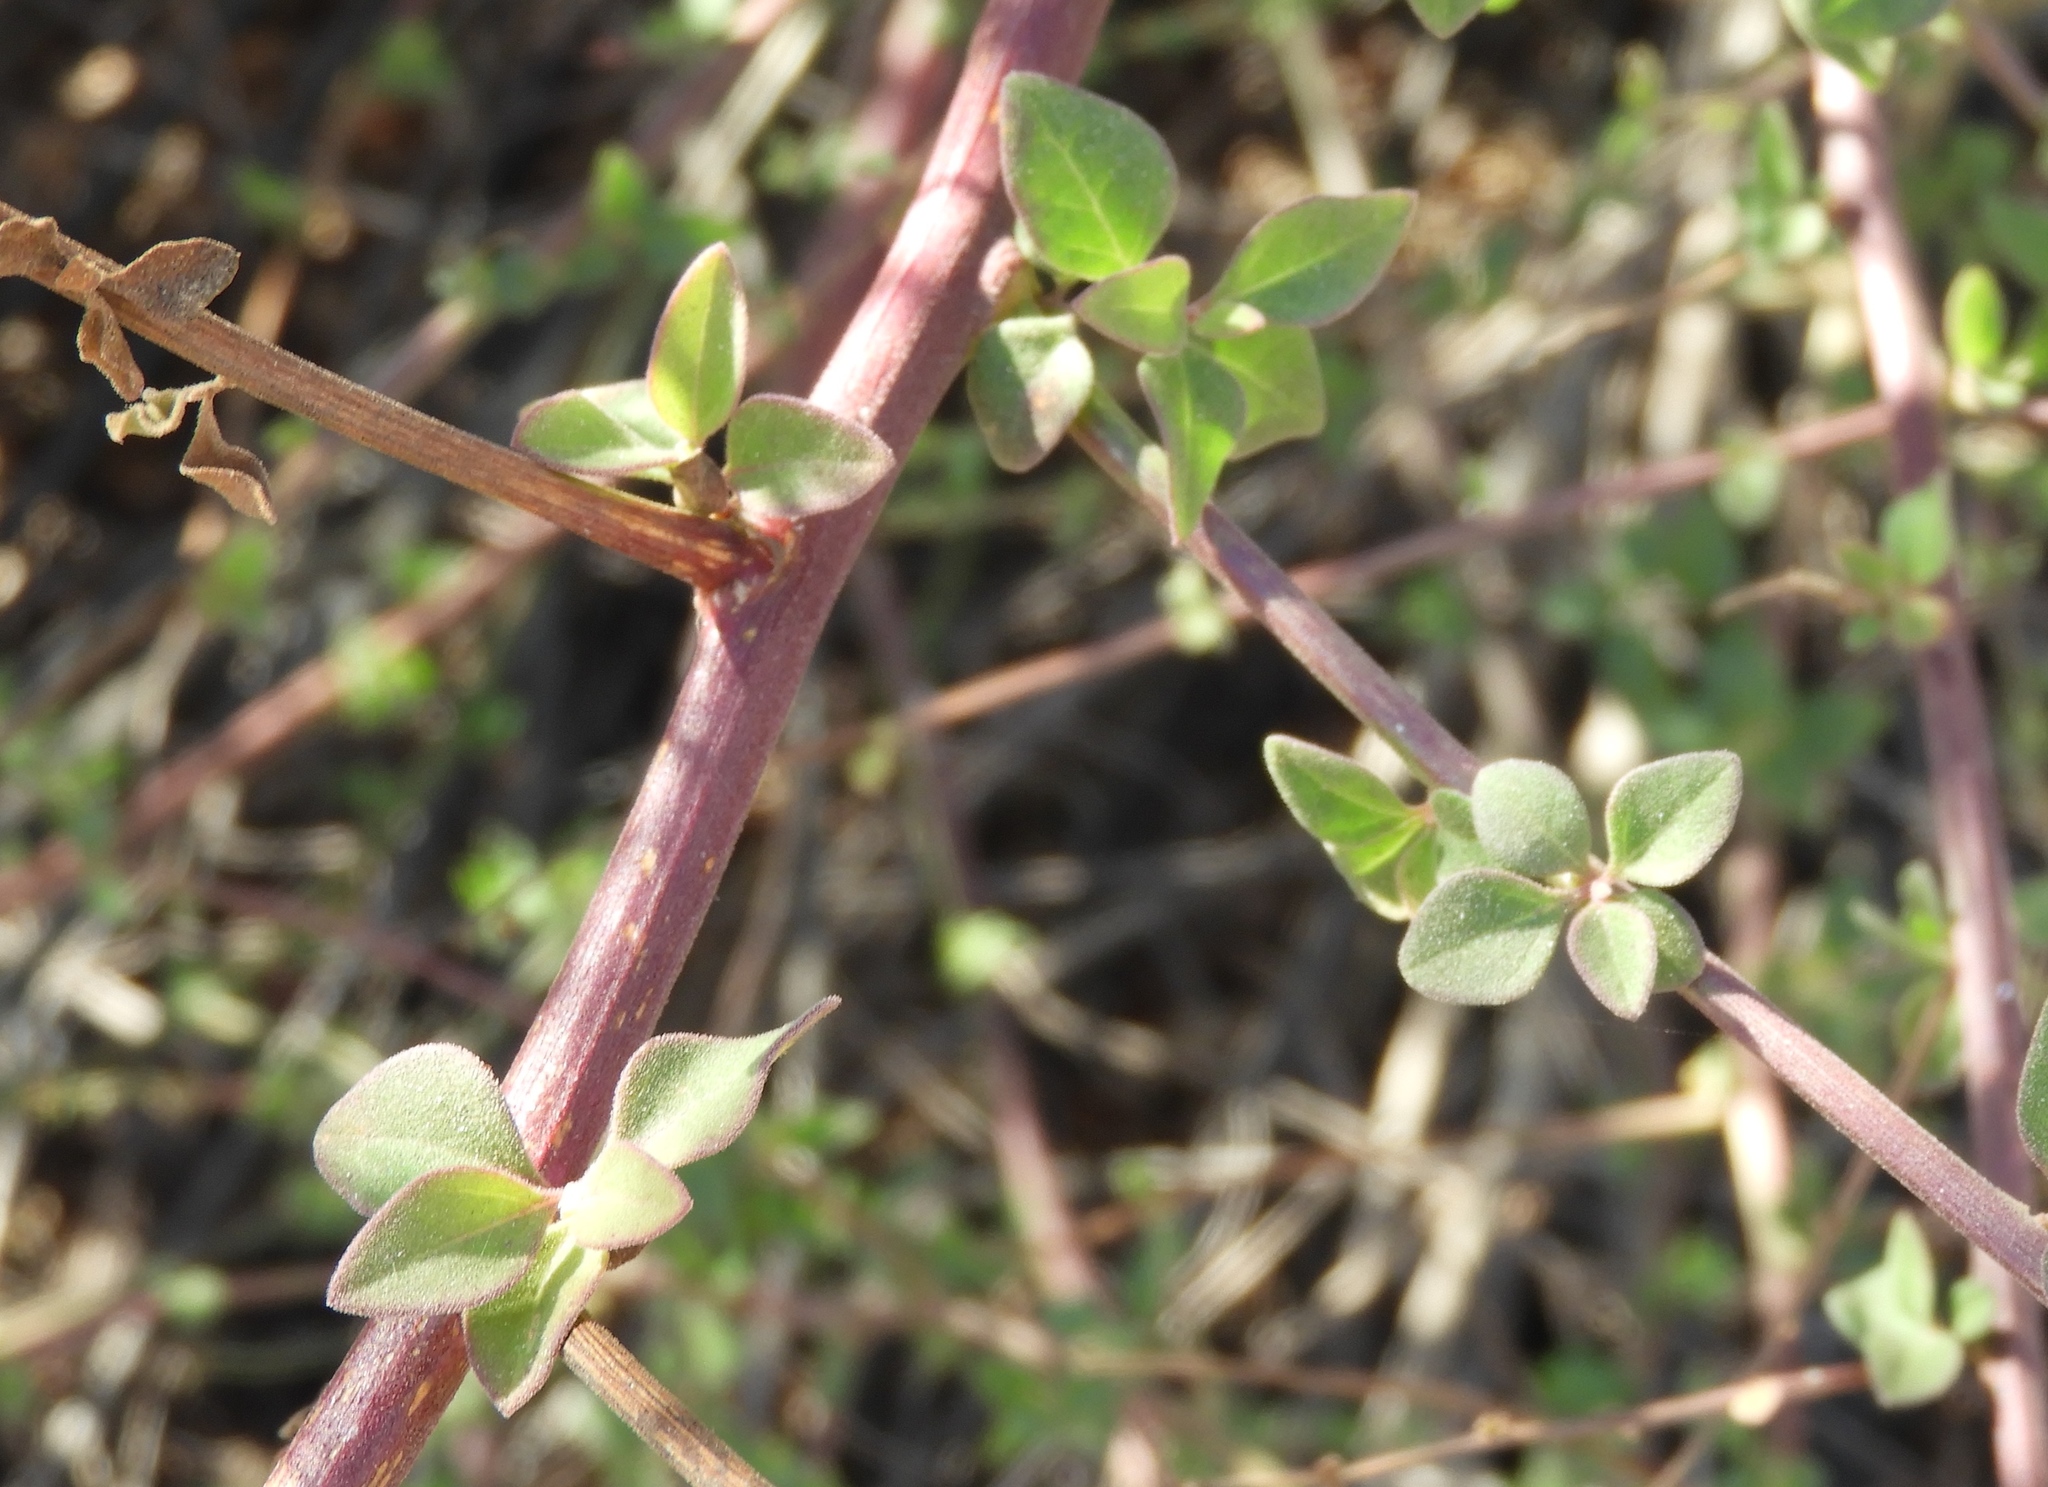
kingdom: Plantae
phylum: Tracheophyta
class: Magnoliopsida
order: Caryophyllales
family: Nyctaginaceae
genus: Salpianthus
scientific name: Salpianthus arenarius
